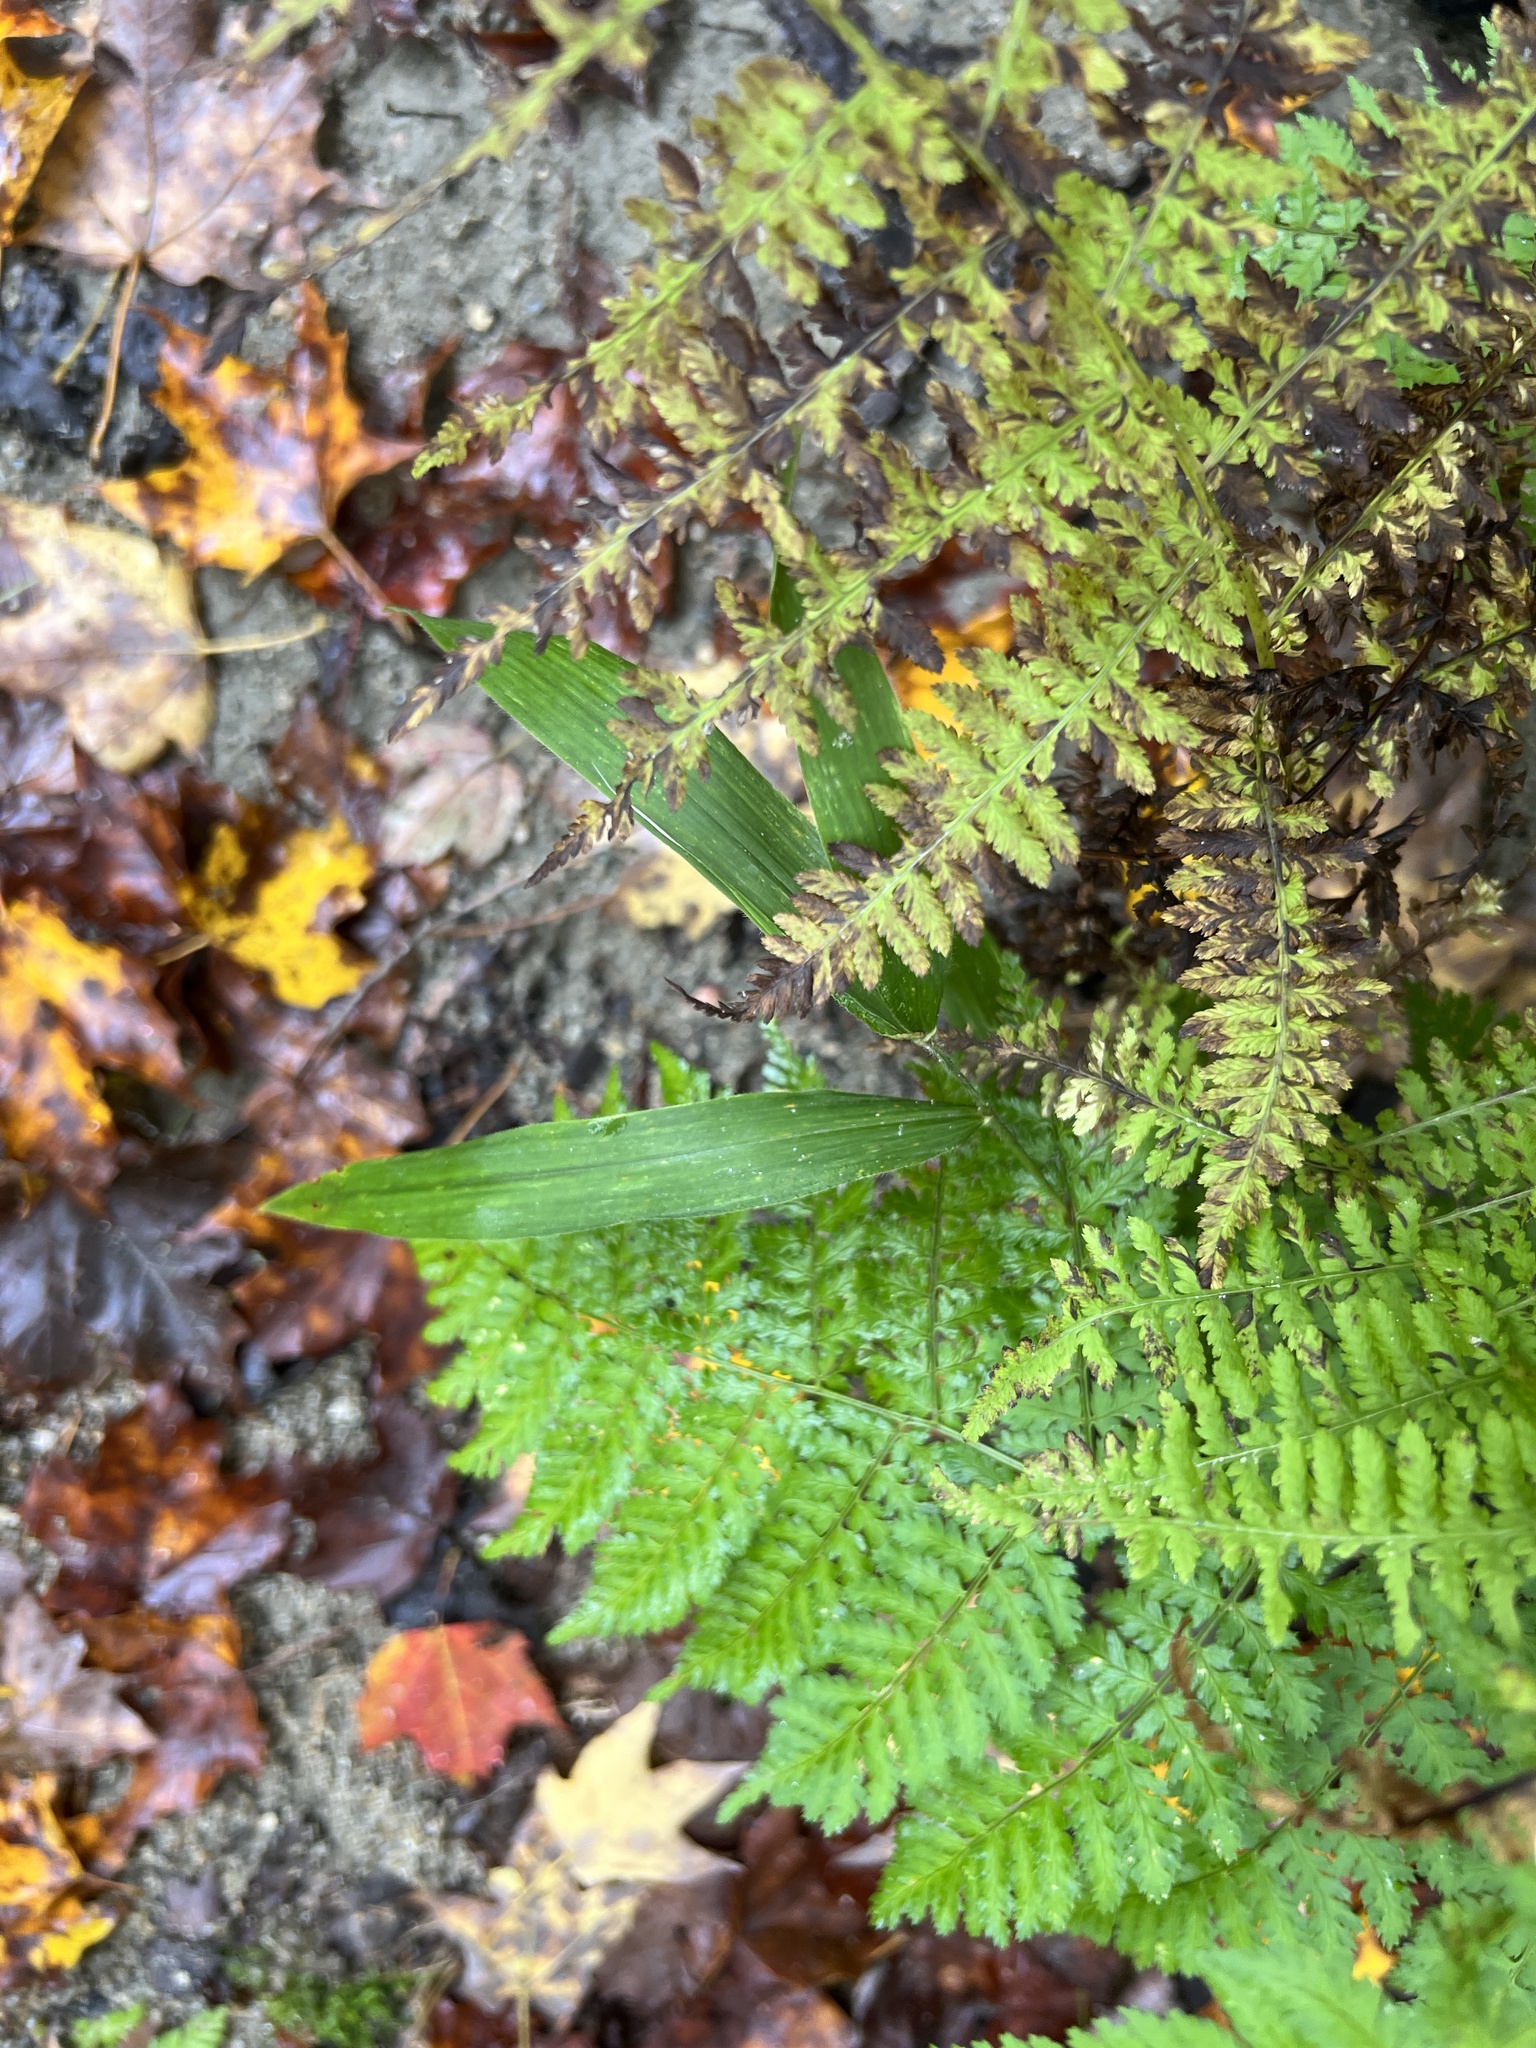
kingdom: Plantae
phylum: Tracheophyta
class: Polypodiopsida
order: Polypodiales
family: Thelypteridaceae
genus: Amauropelta
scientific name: Amauropelta noveboracensis
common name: New york fern
